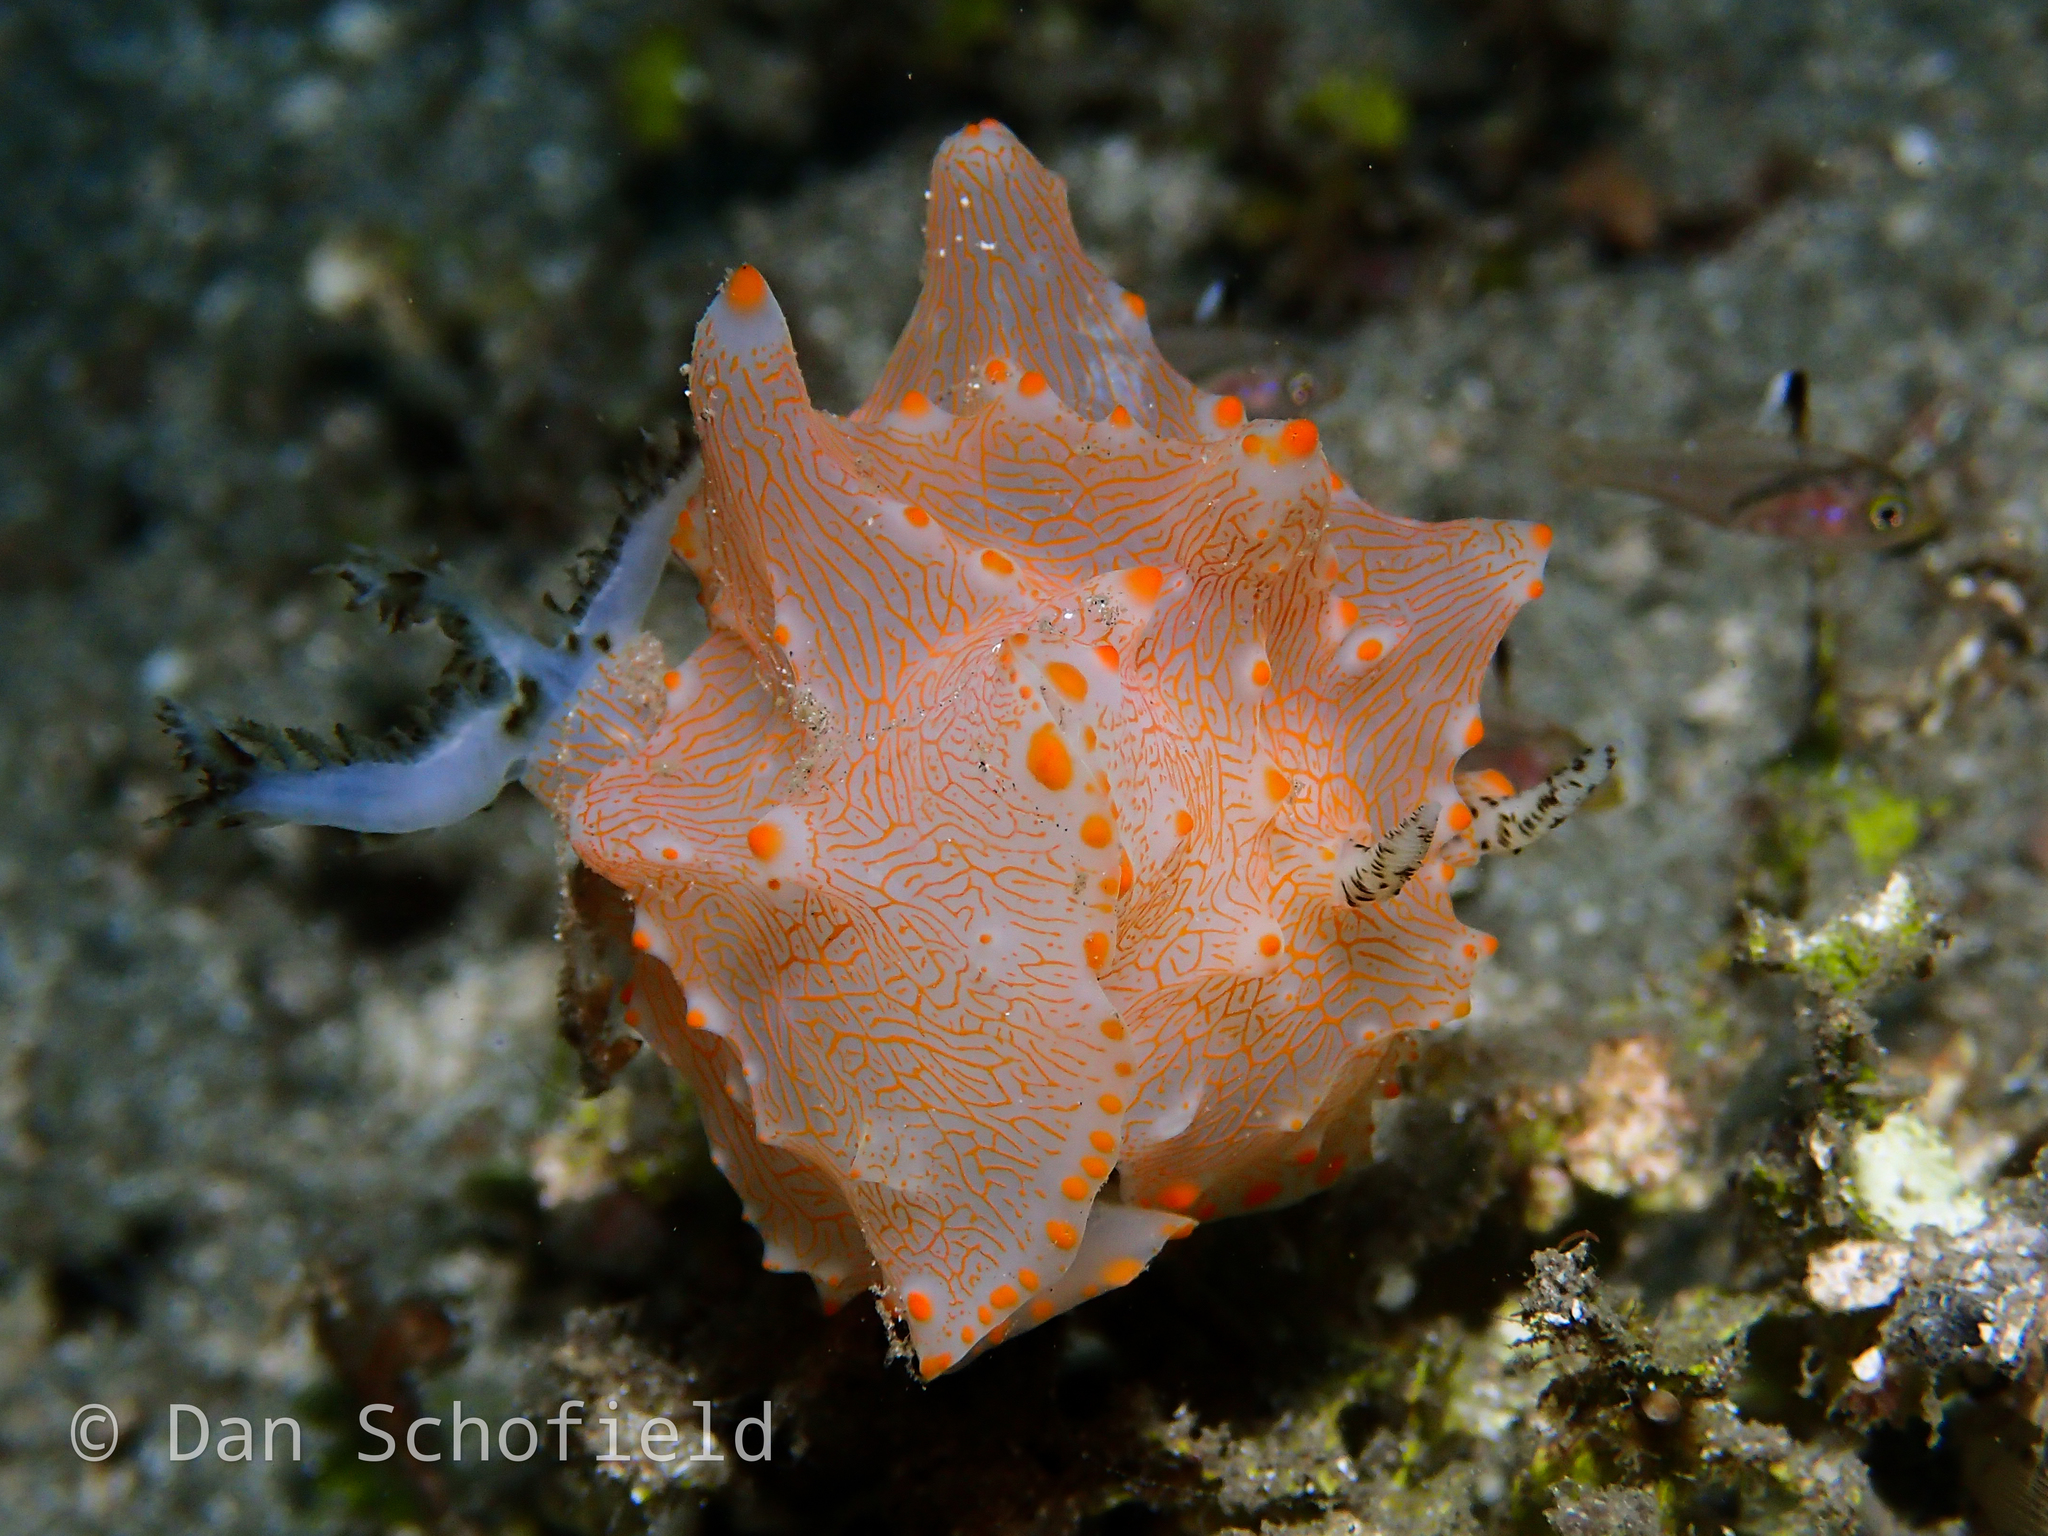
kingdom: Animalia
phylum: Mollusca
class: Gastropoda
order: Nudibranchia
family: Discodorididae
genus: Halgerda
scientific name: Halgerda batangas
